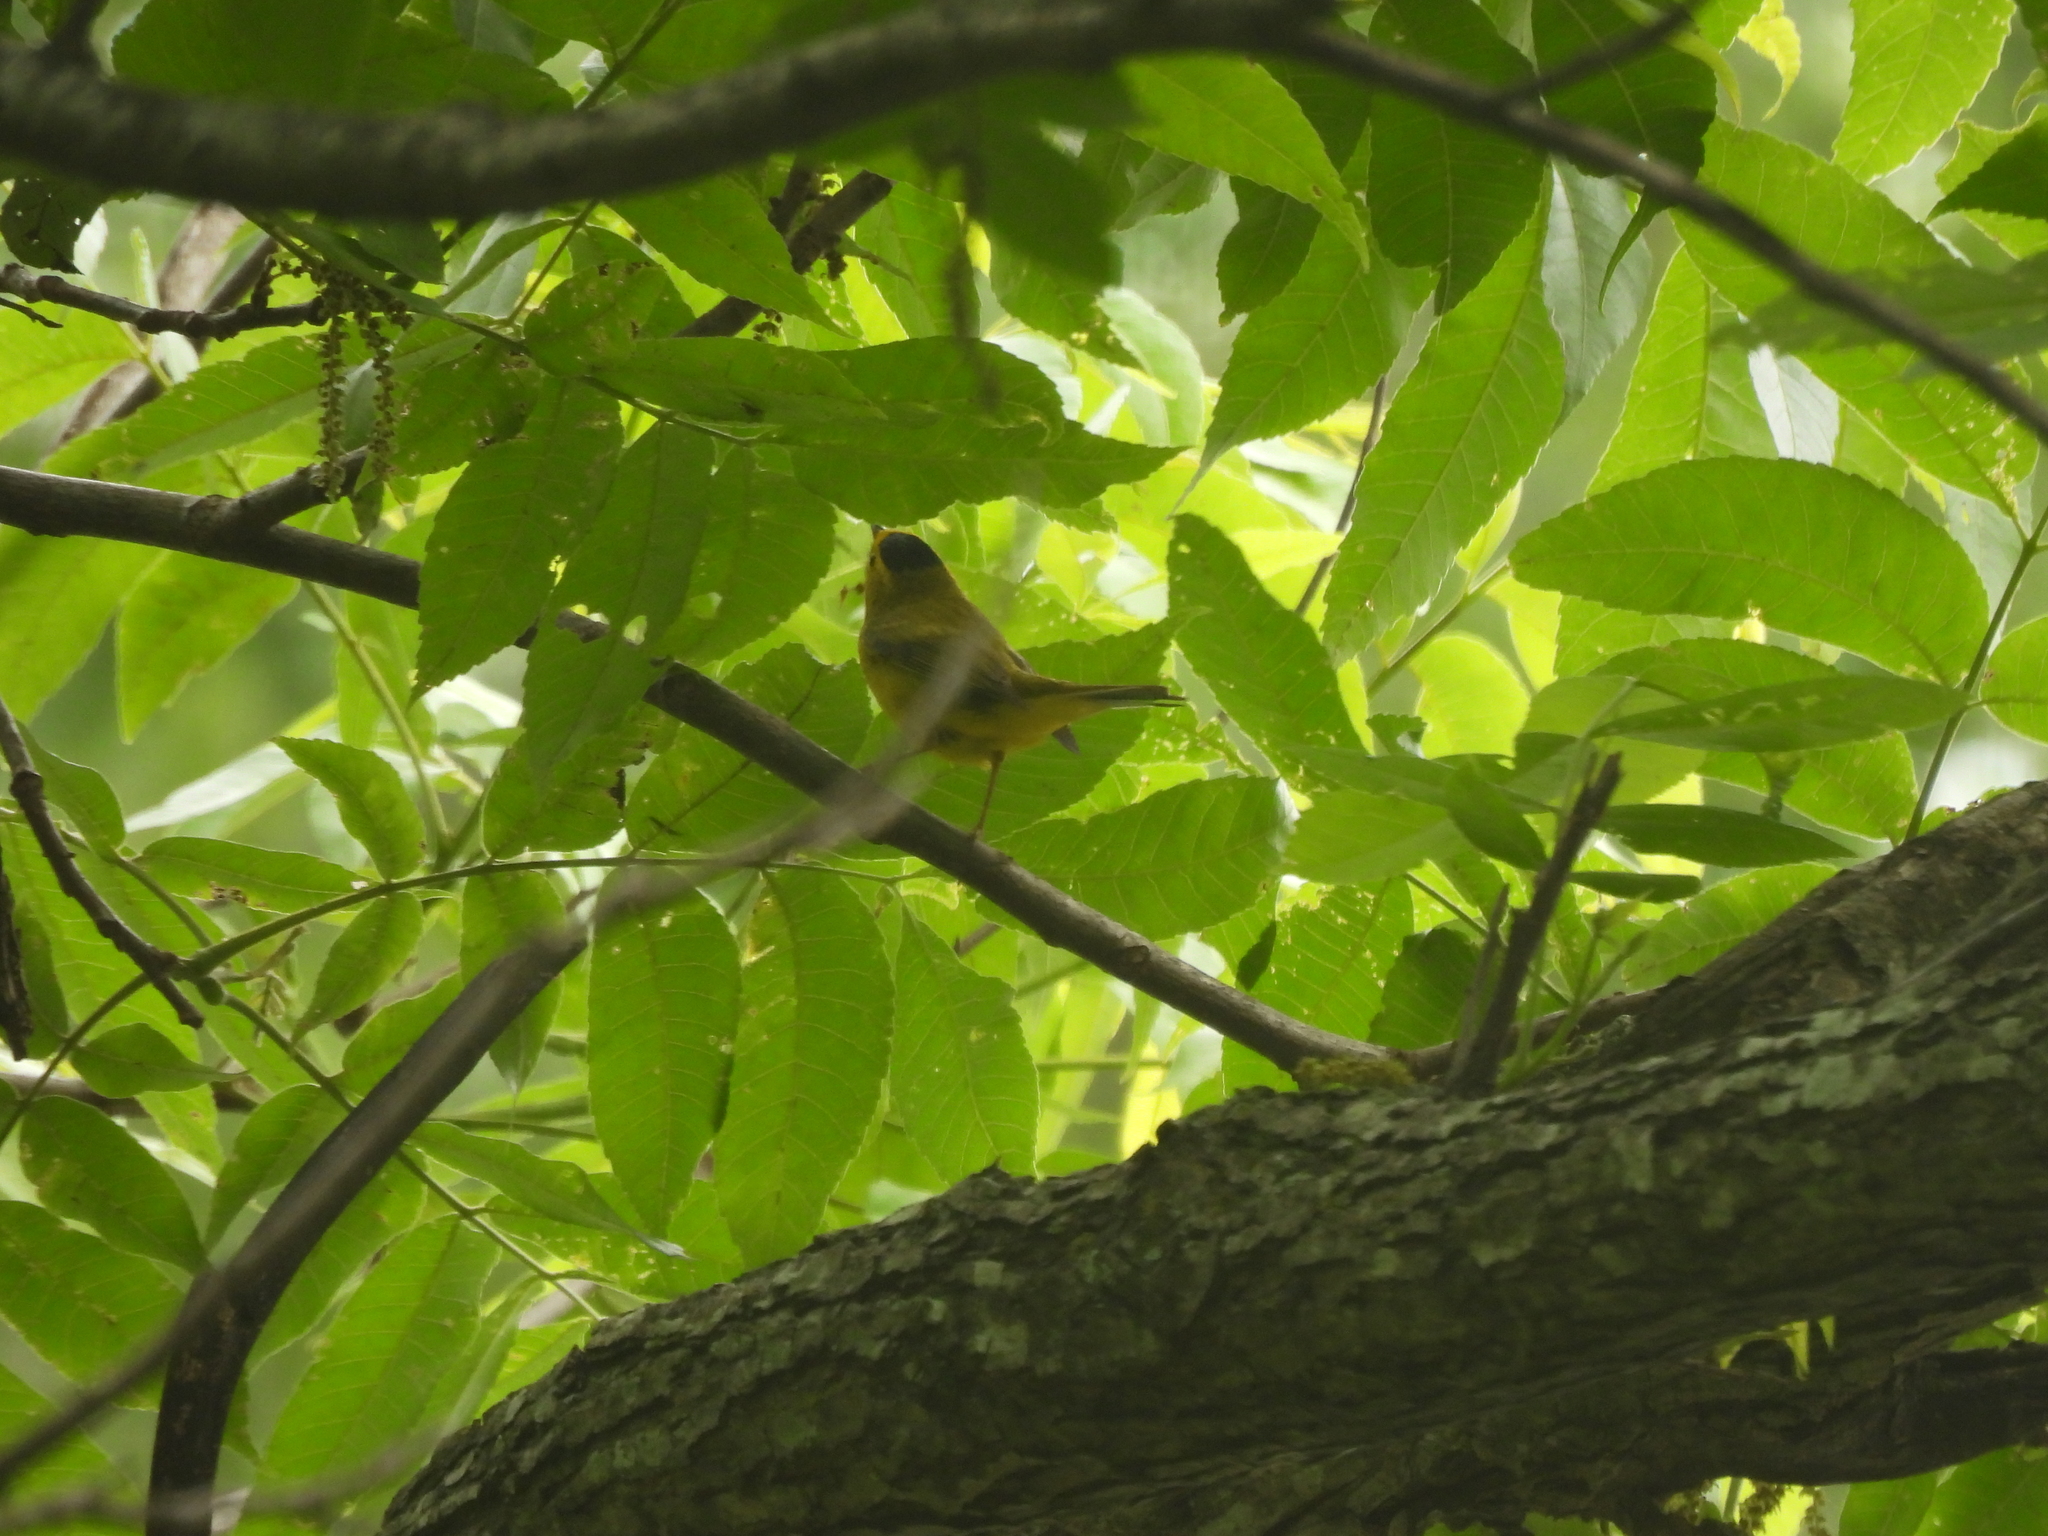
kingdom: Animalia
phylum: Chordata
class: Aves
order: Passeriformes
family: Parulidae
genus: Cardellina
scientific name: Cardellina pusilla
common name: Wilson's warbler
